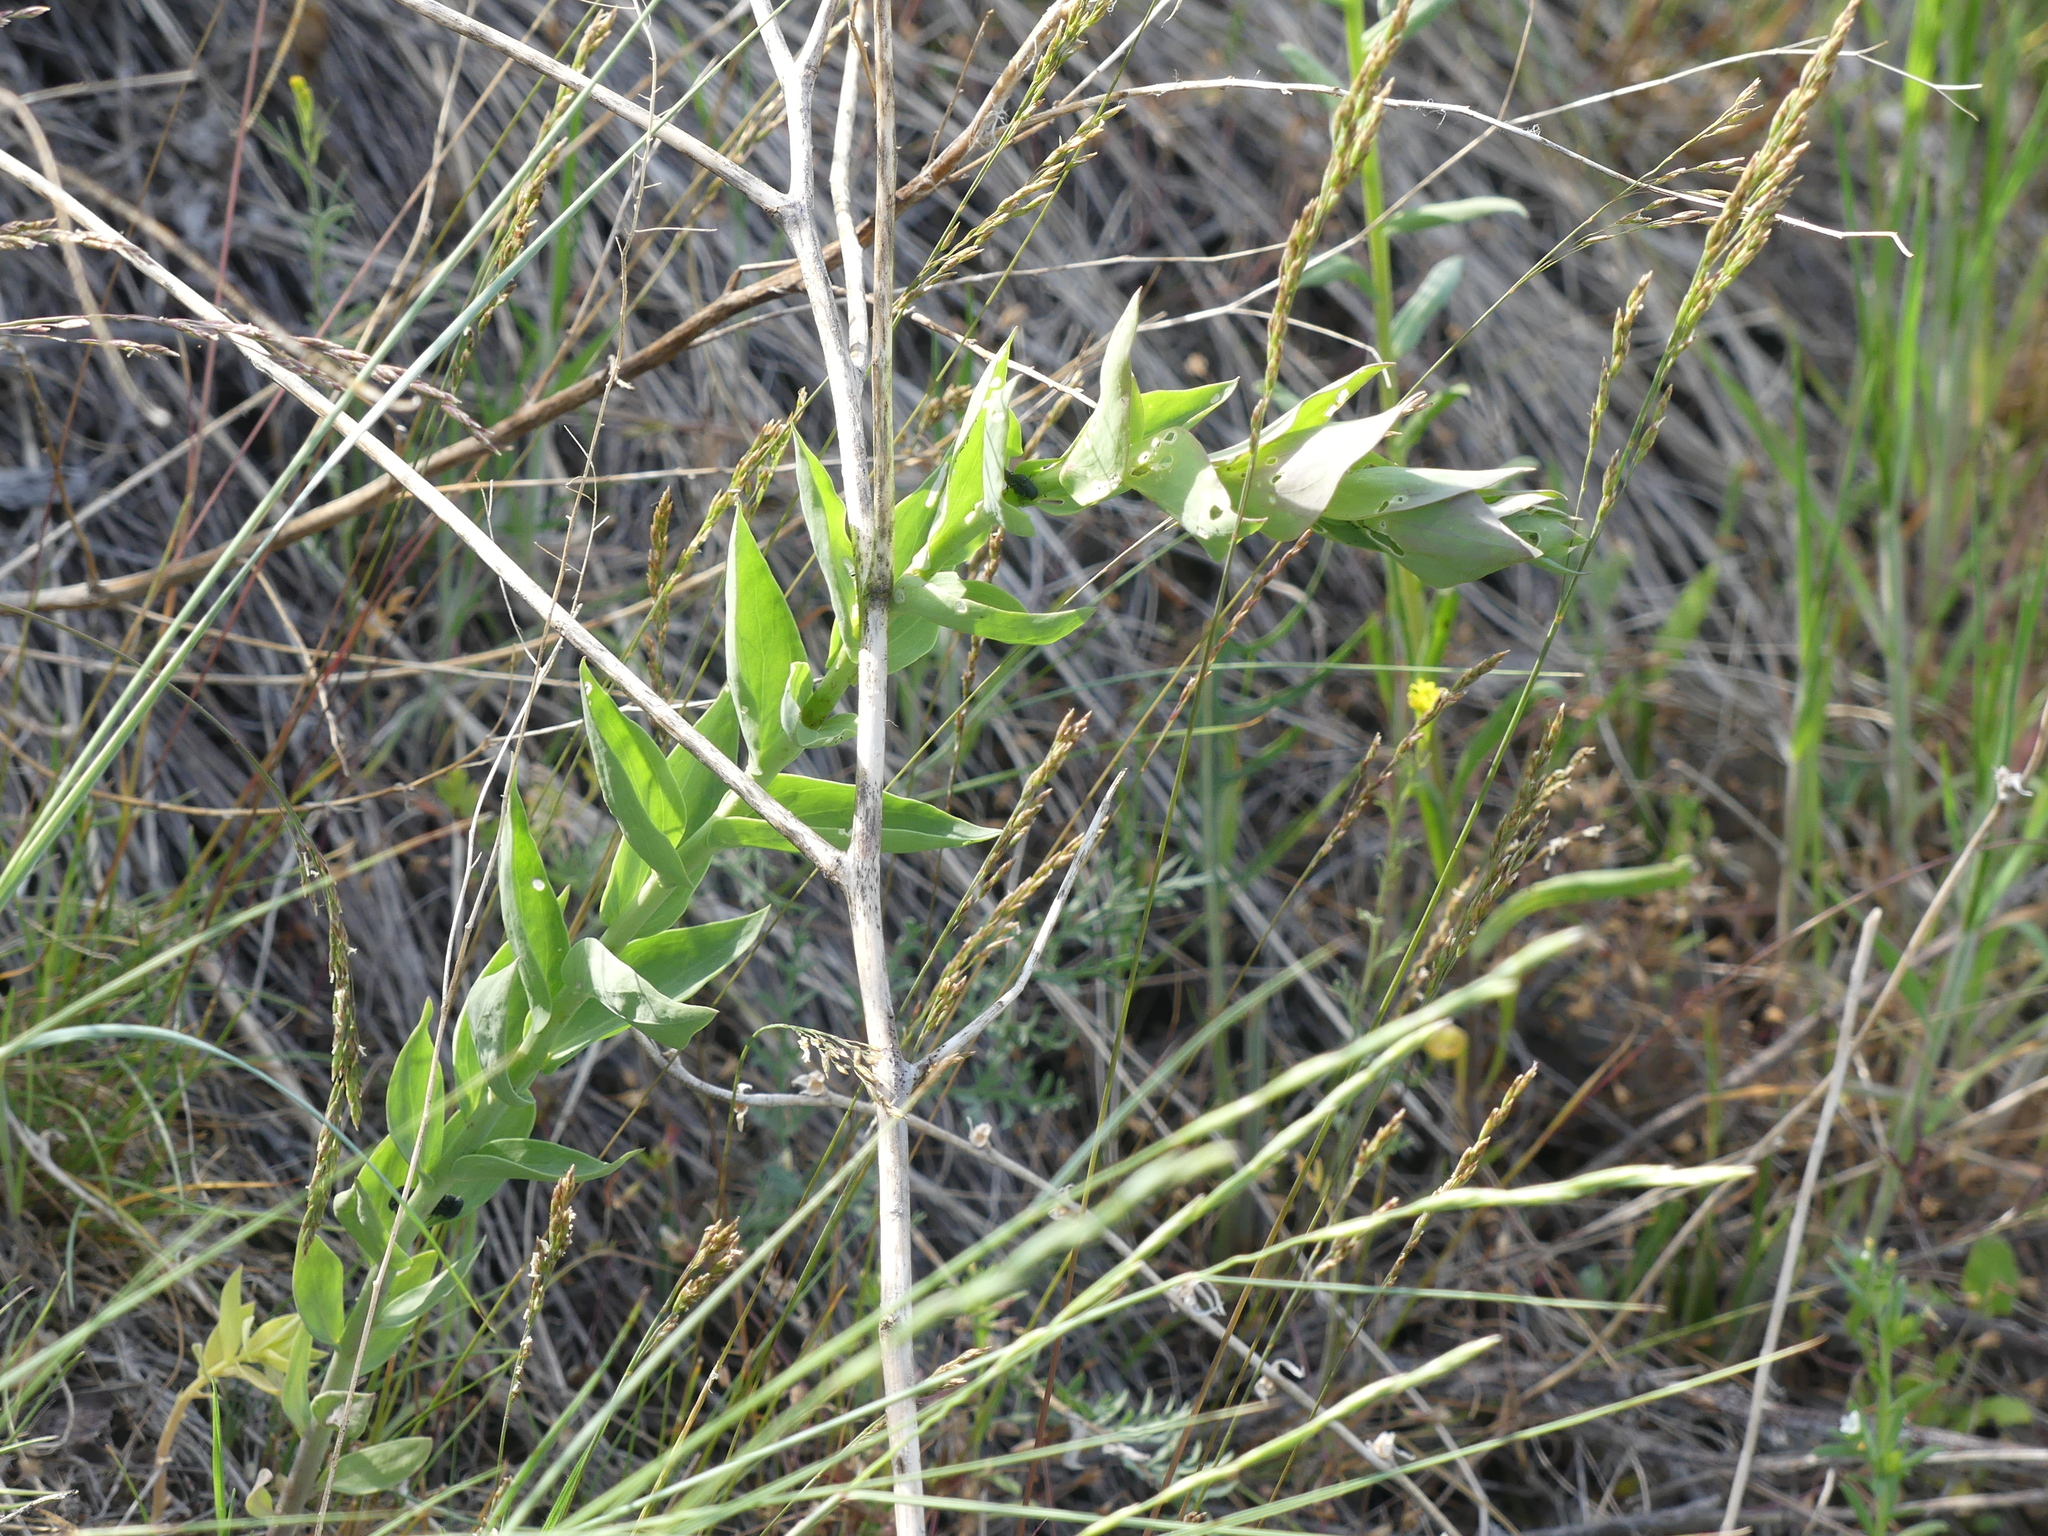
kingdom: Plantae
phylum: Tracheophyta
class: Magnoliopsida
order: Lamiales
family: Plantaginaceae
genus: Linaria
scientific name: Linaria dalmatica
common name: Dalmatian toadflax
